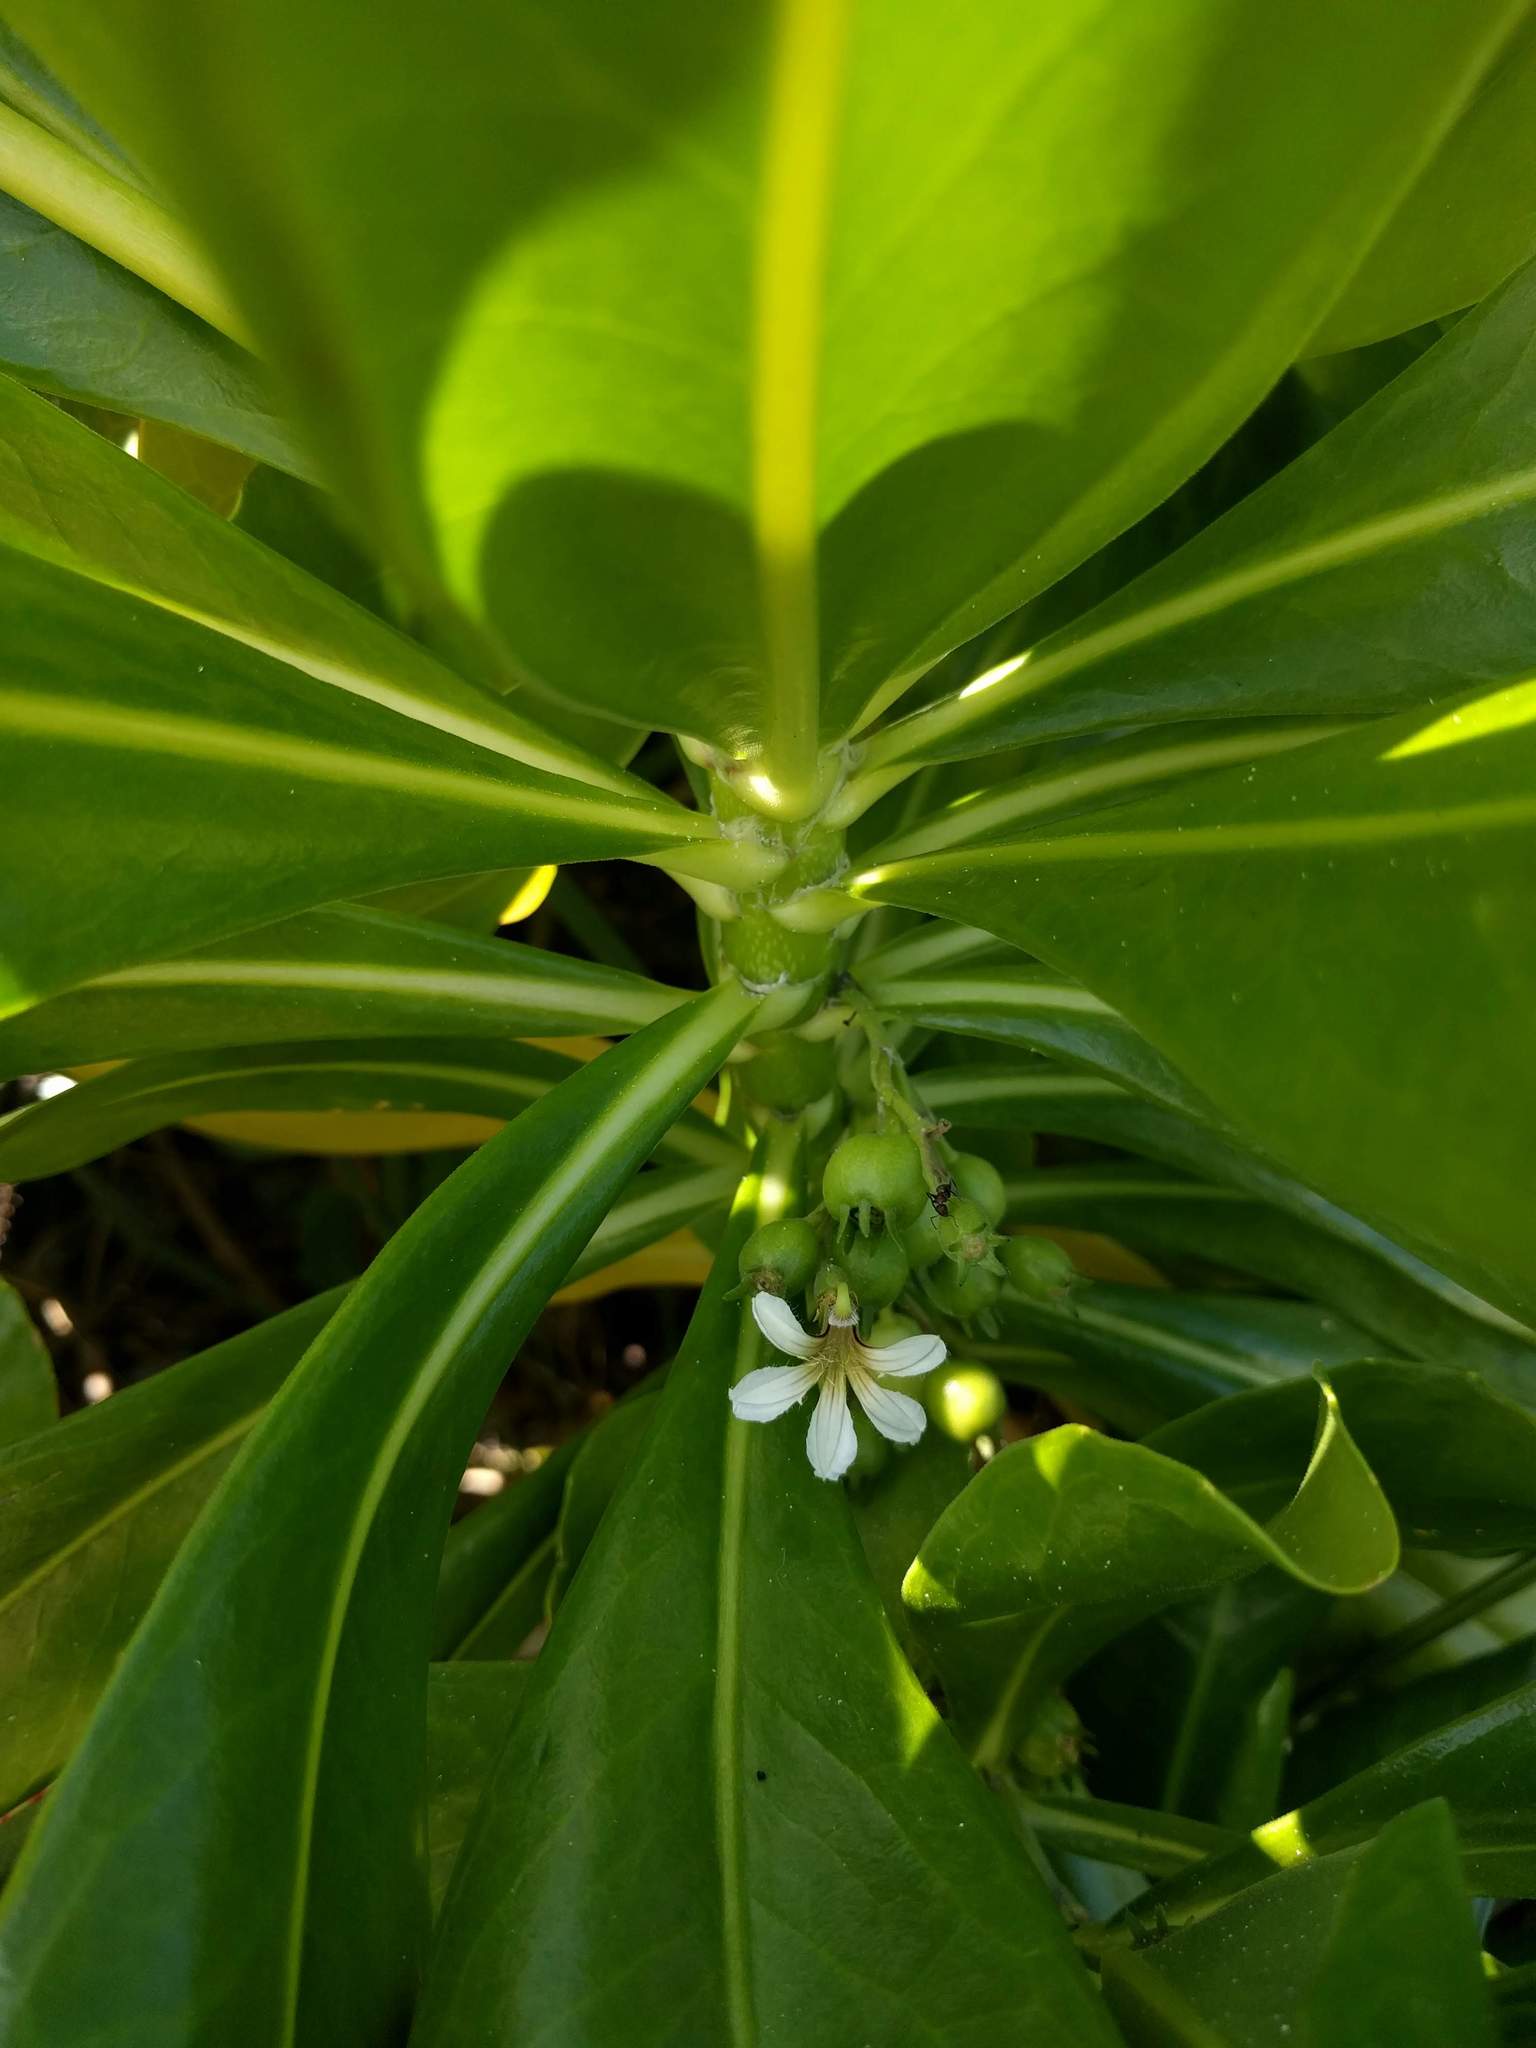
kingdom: Plantae
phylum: Tracheophyta
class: Magnoliopsida
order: Asterales
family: Goodeniaceae
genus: Scaevola
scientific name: Scaevola taccada
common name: Sea lettucetree
